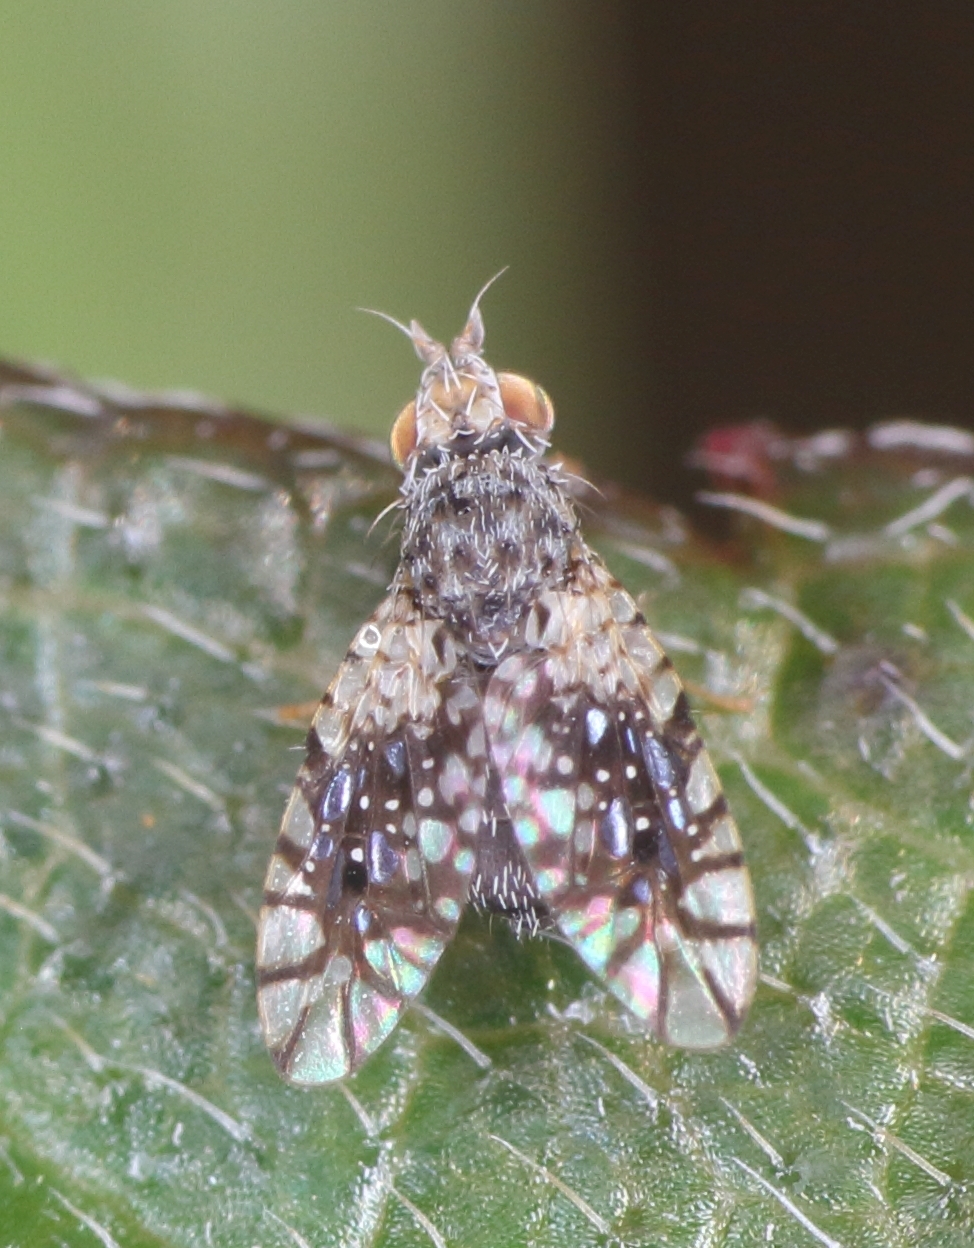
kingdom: Animalia
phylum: Arthropoda
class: Insecta
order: Diptera
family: Tephritidae
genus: Melanopterella
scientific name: Melanopterella
